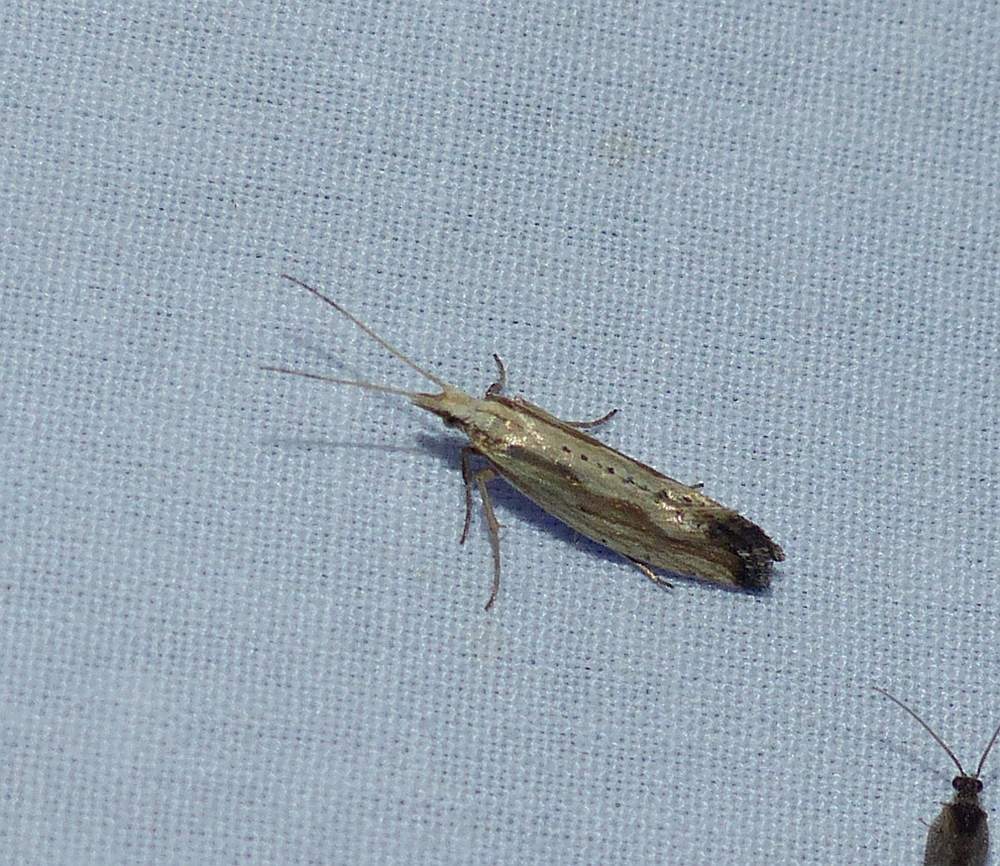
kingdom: Animalia
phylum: Arthropoda
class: Insecta
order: Lepidoptera
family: Plutellidae
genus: Plutella
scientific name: Plutella porrectella
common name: Dame's rocket moth
